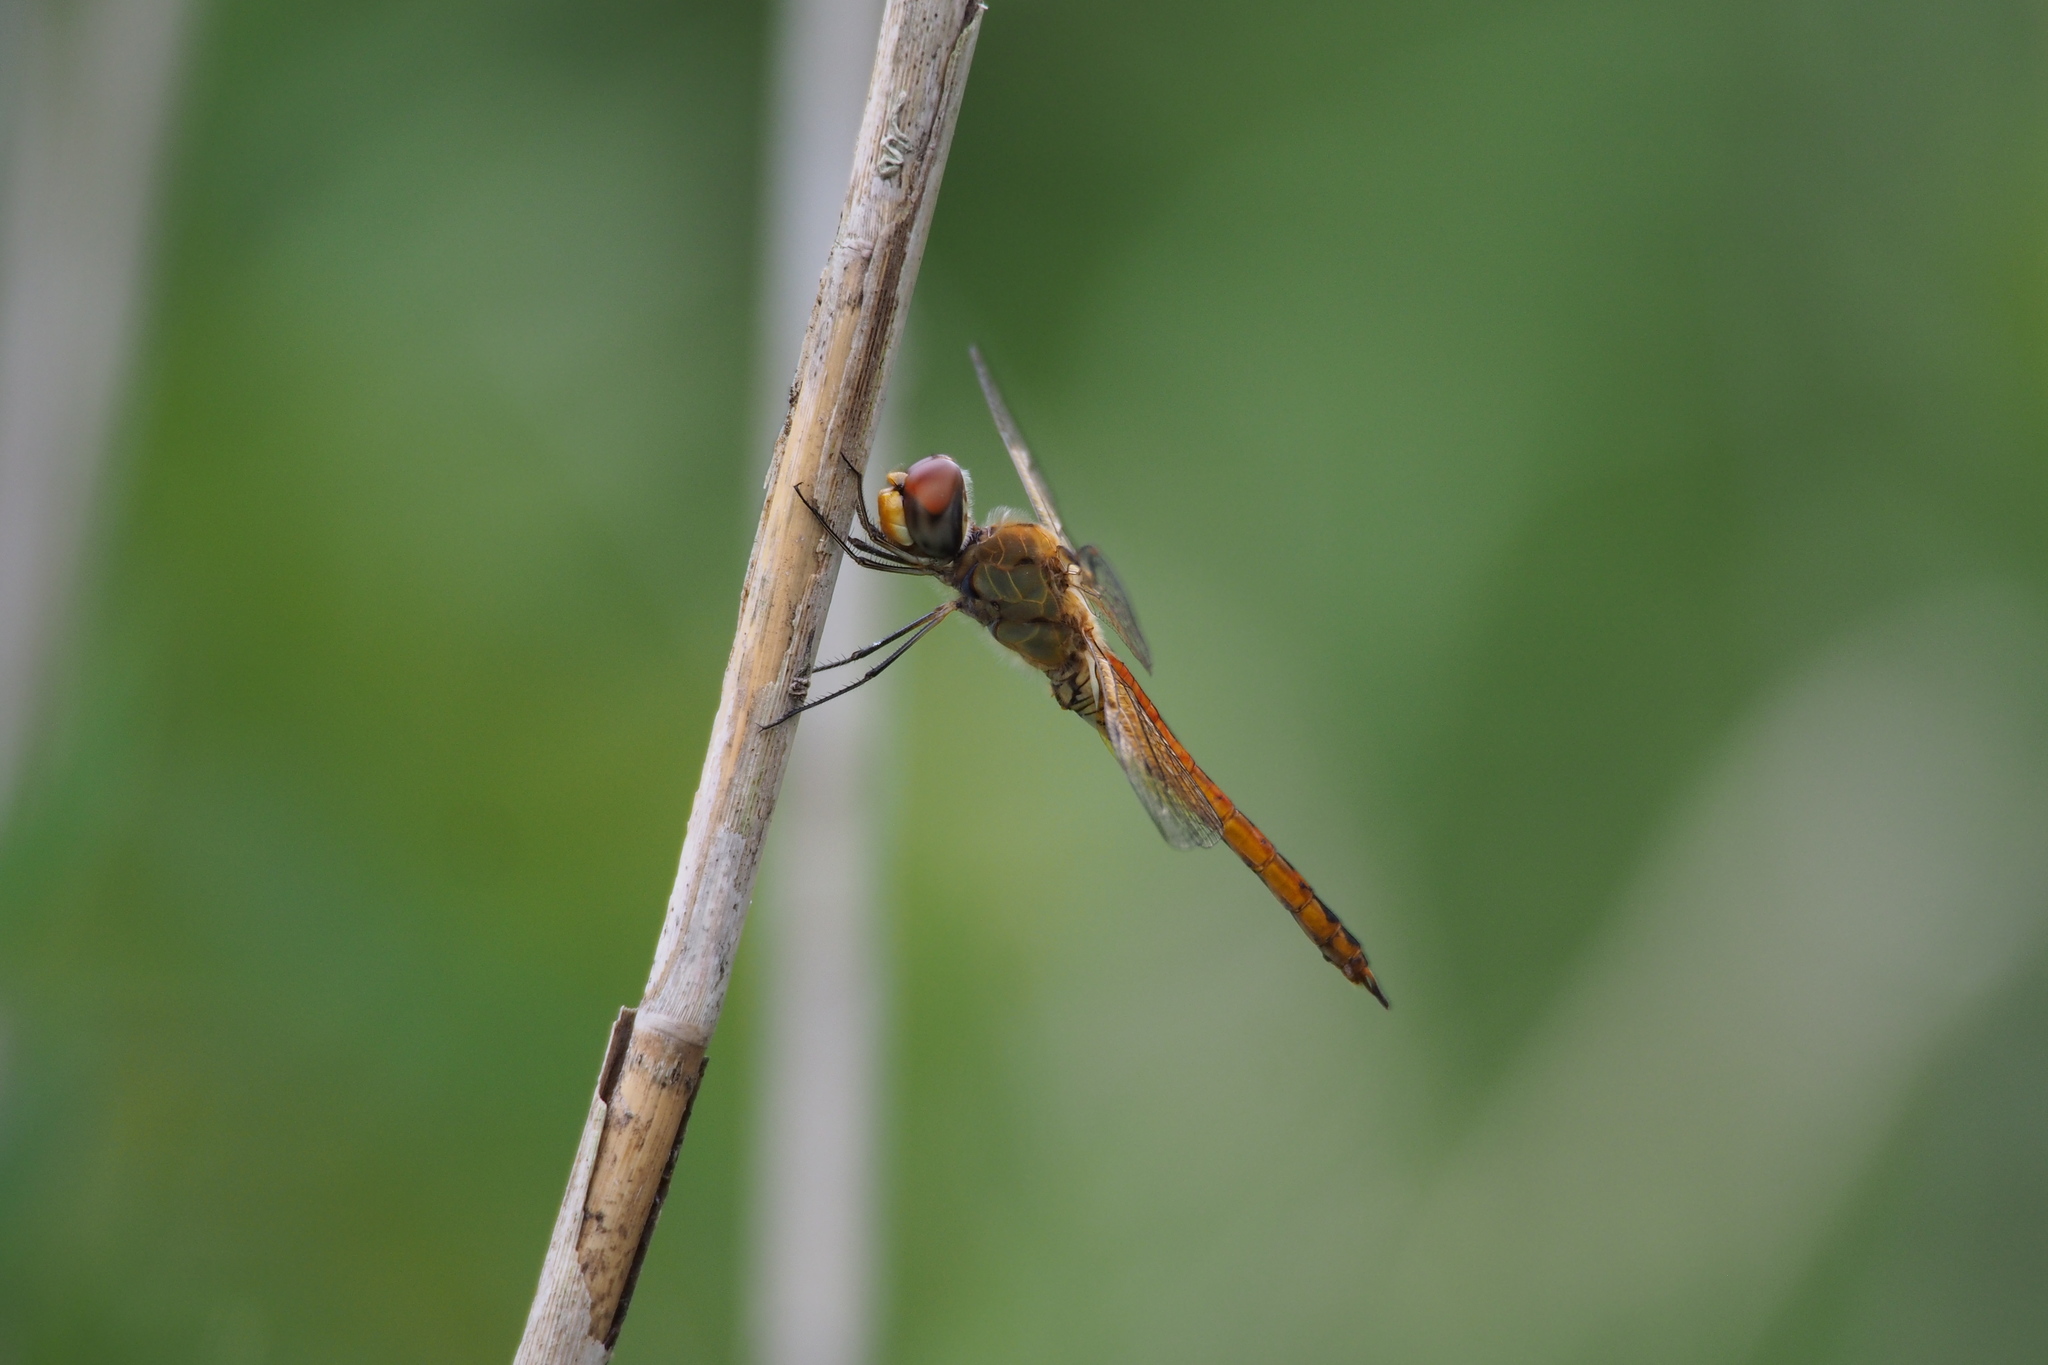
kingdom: Animalia
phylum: Arthropoda
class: Insecta
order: Odonata
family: Libellulidae
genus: Pantala
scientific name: Pantala flavescens
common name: Wandering glider
